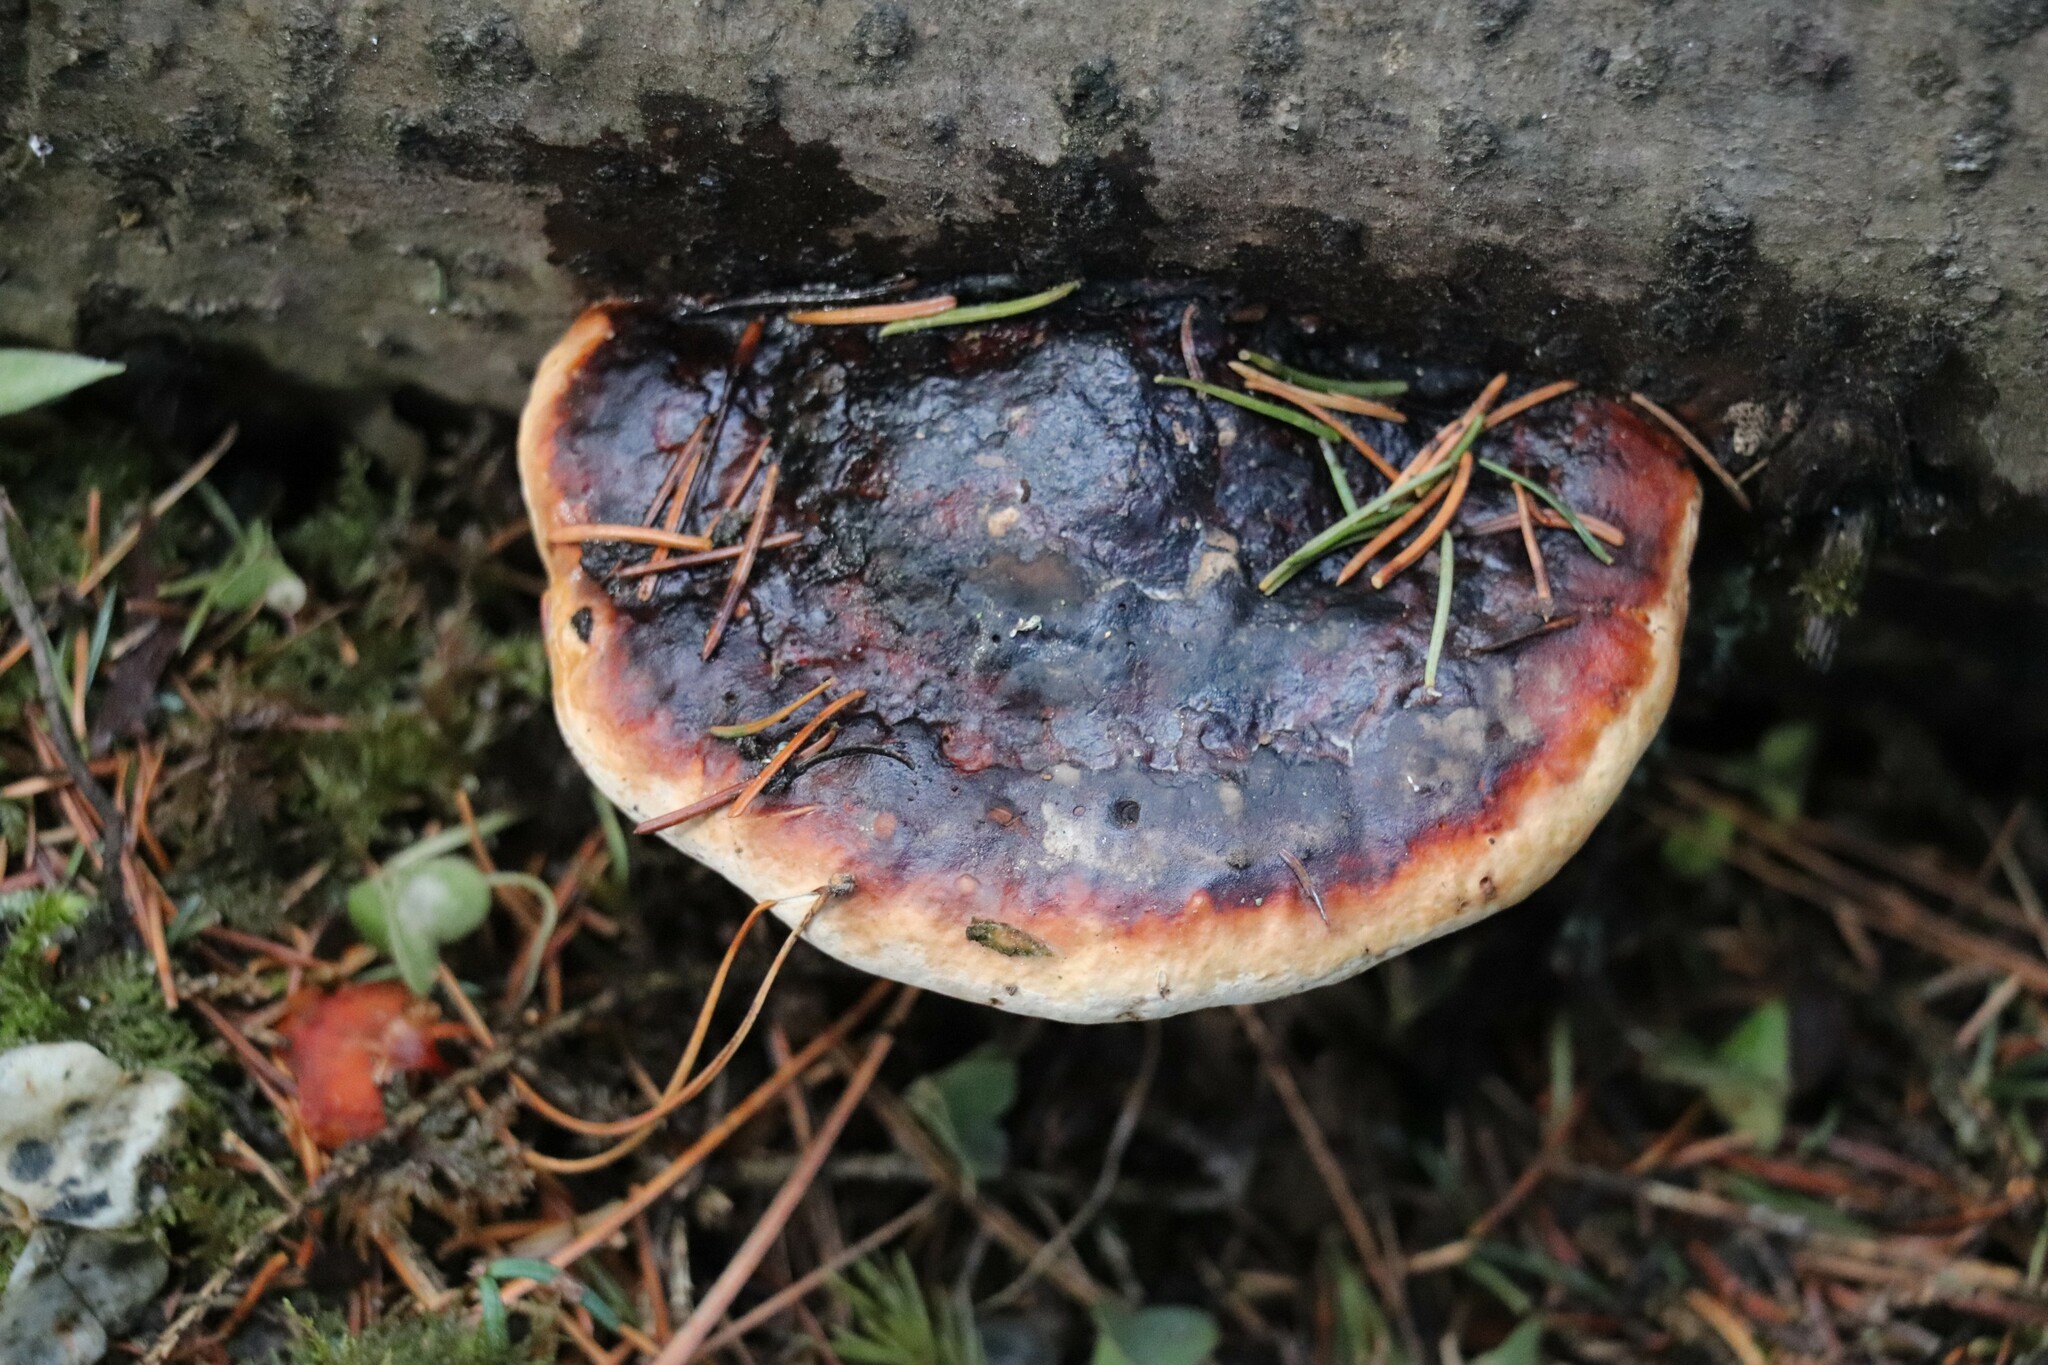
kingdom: Fungi
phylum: Basidiomycota
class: Agaricomycetes
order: Polyporales
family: Fomitopsidaceae
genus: Fomitopsis
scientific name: Fomitopsis pinicola
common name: Red-belted bracket
